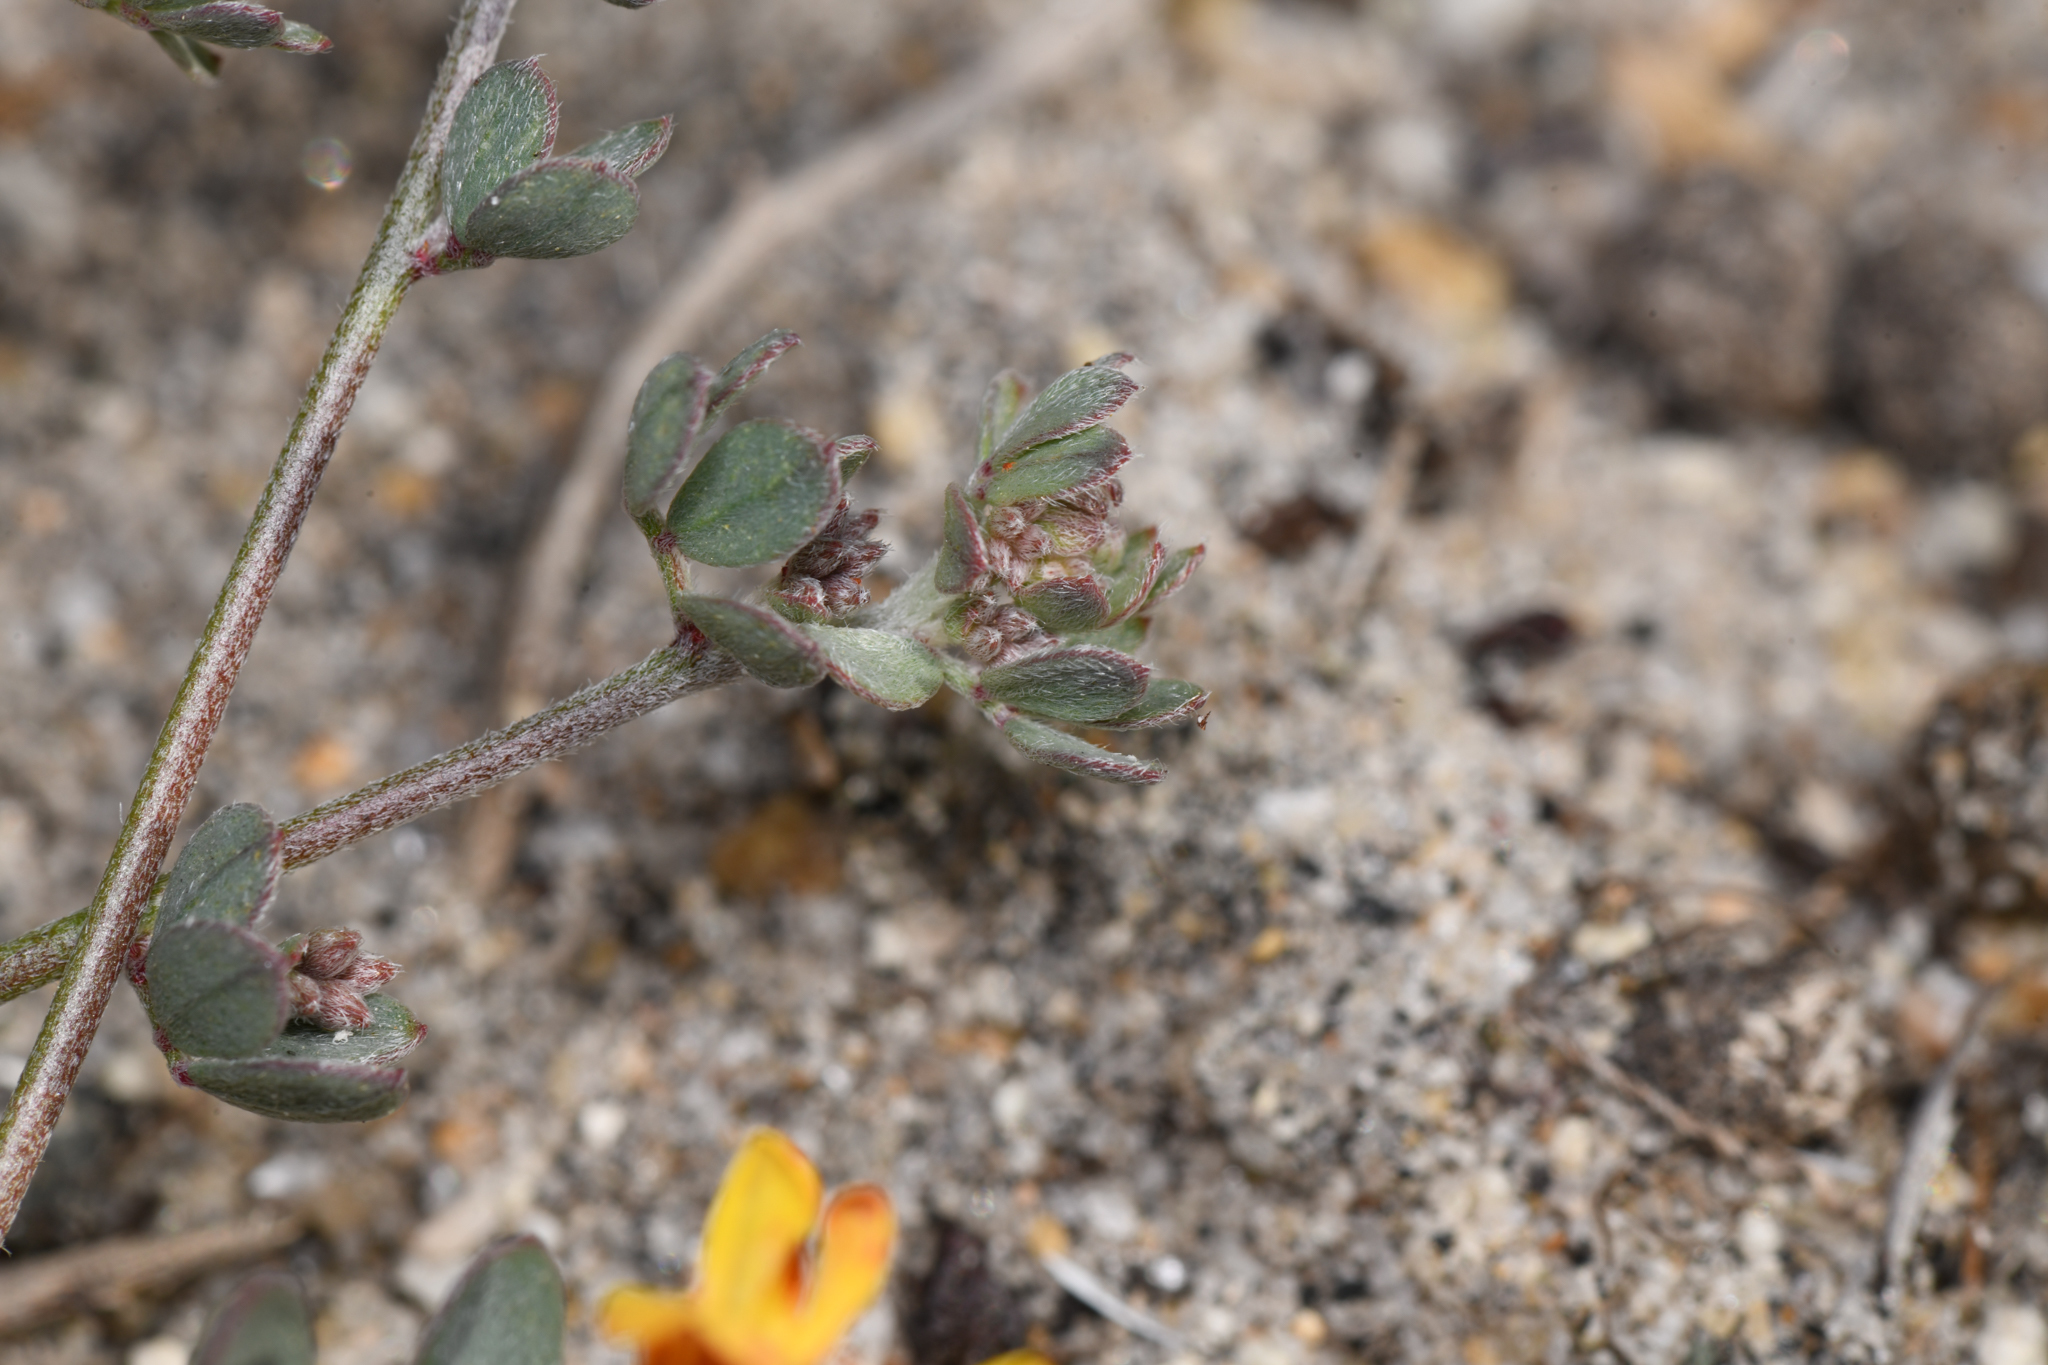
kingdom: Plantae
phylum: Tracheophyta
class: Magnoliopsida
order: Fabales
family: Fabaceae
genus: Acmispon
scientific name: Acmispon prostratus
